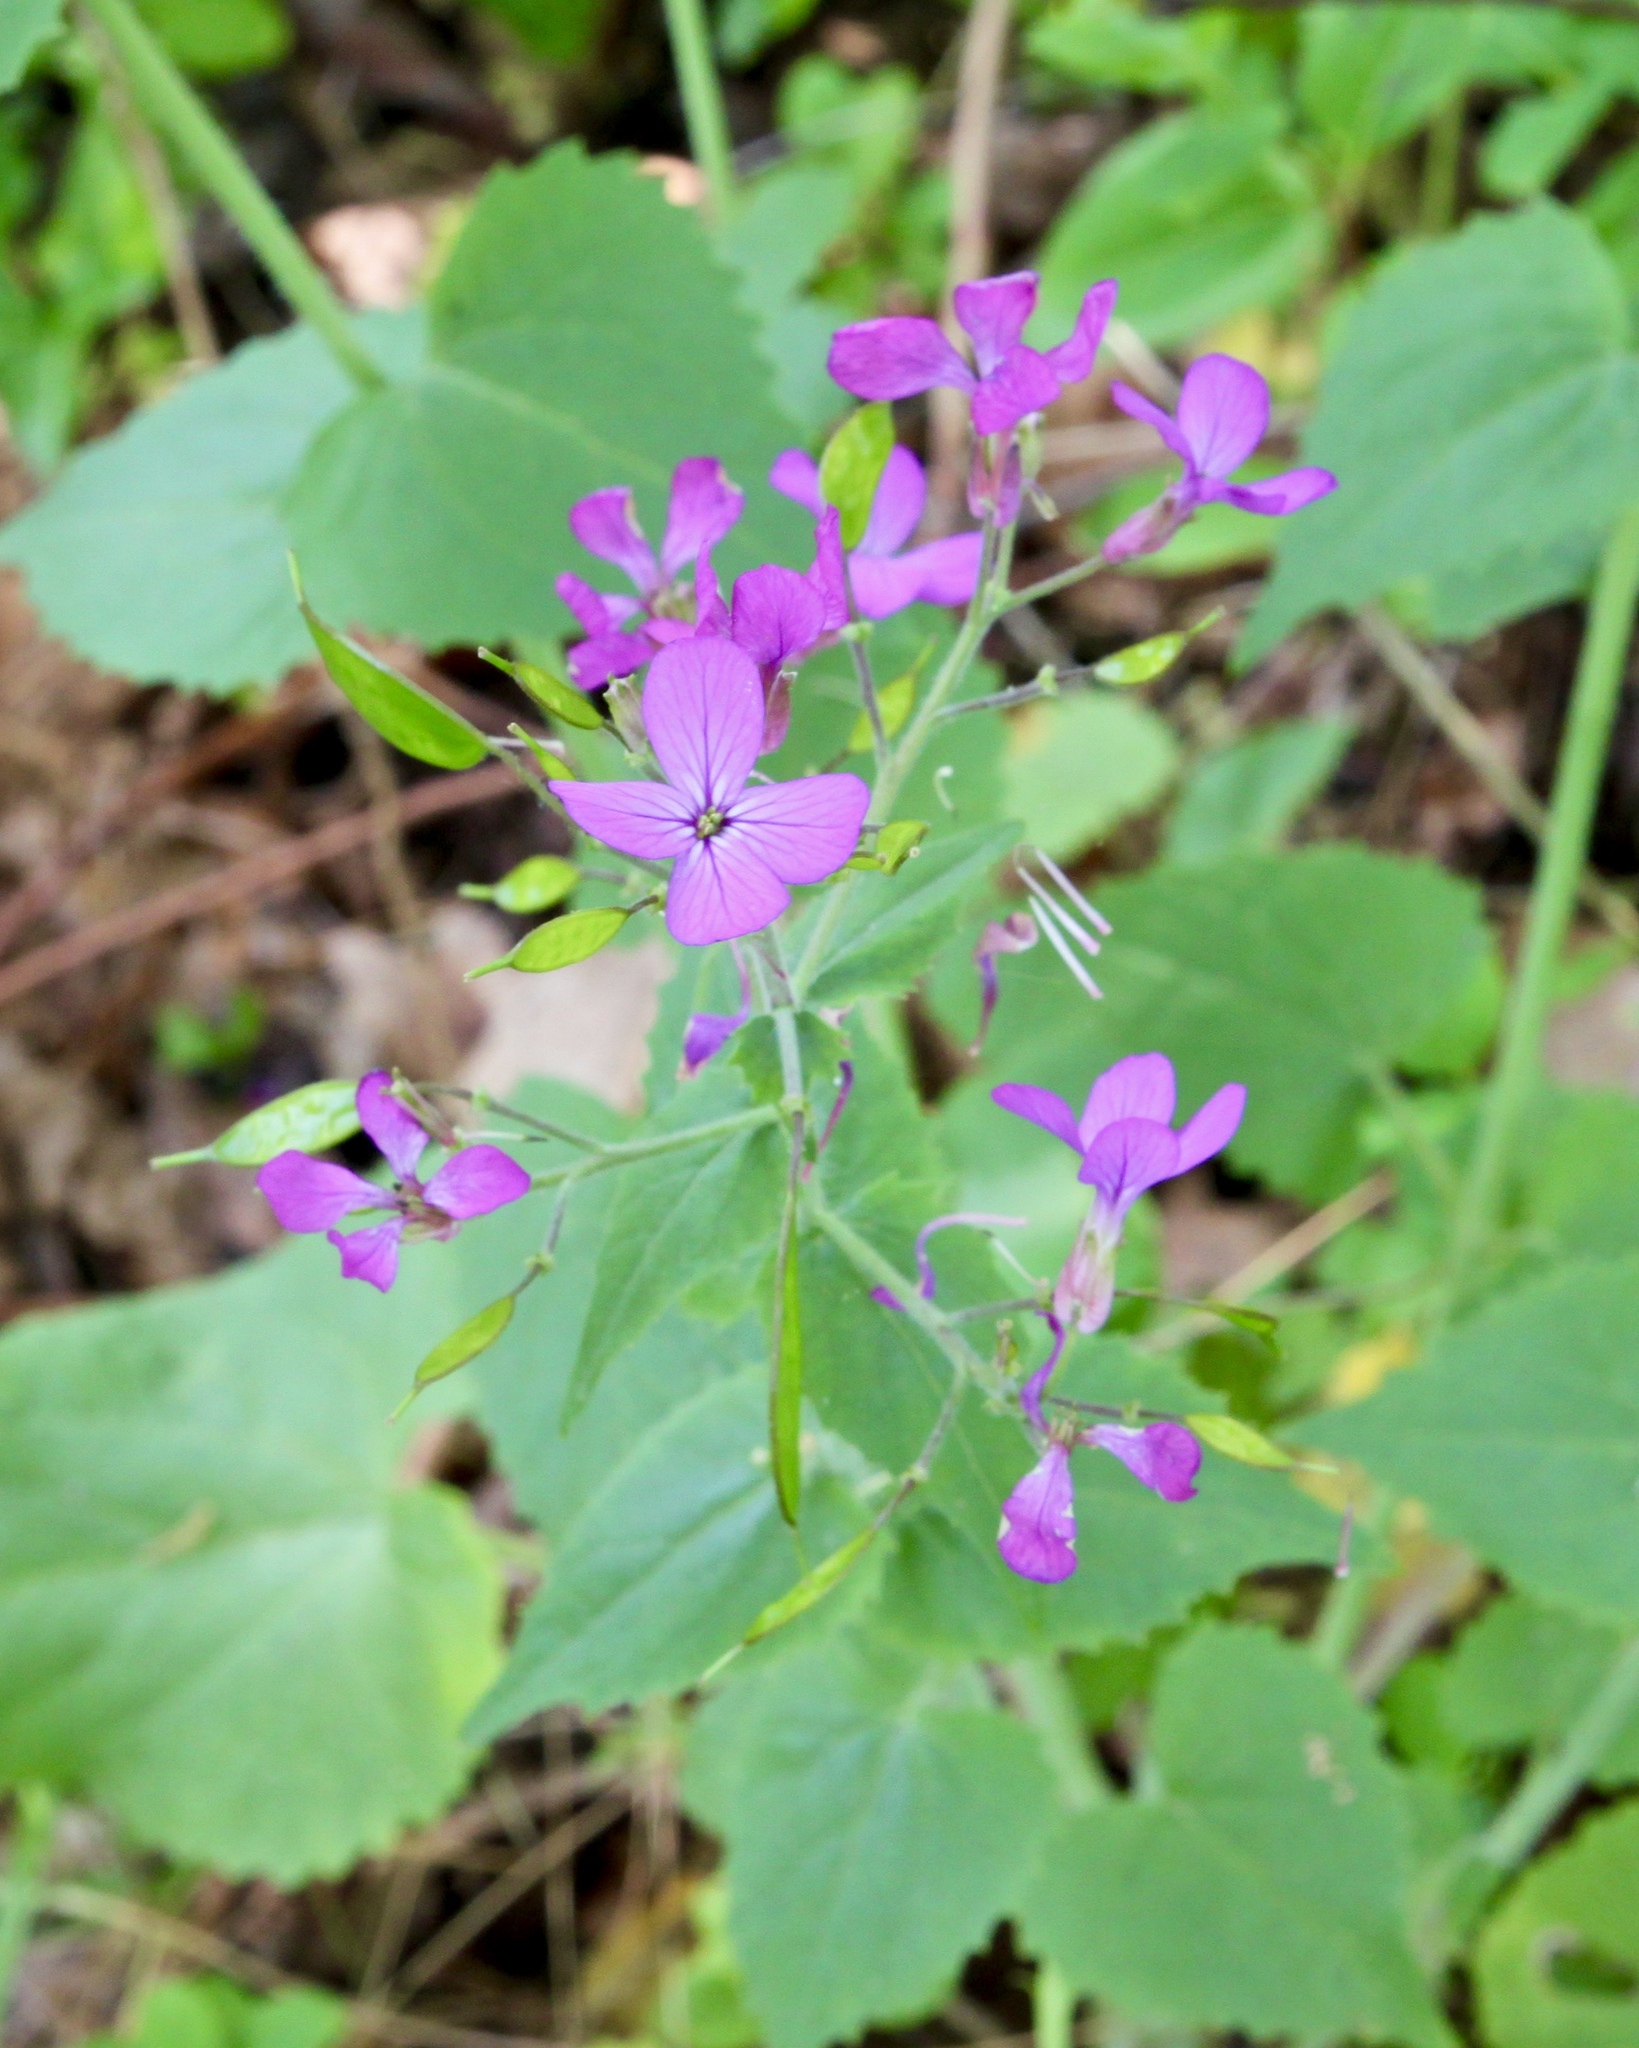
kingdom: Plantae
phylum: Tracheophyta
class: Magnoliopsida
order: Brassicales
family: Brassicaceae
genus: Lunaria
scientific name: Lunaria annua
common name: Honesty
